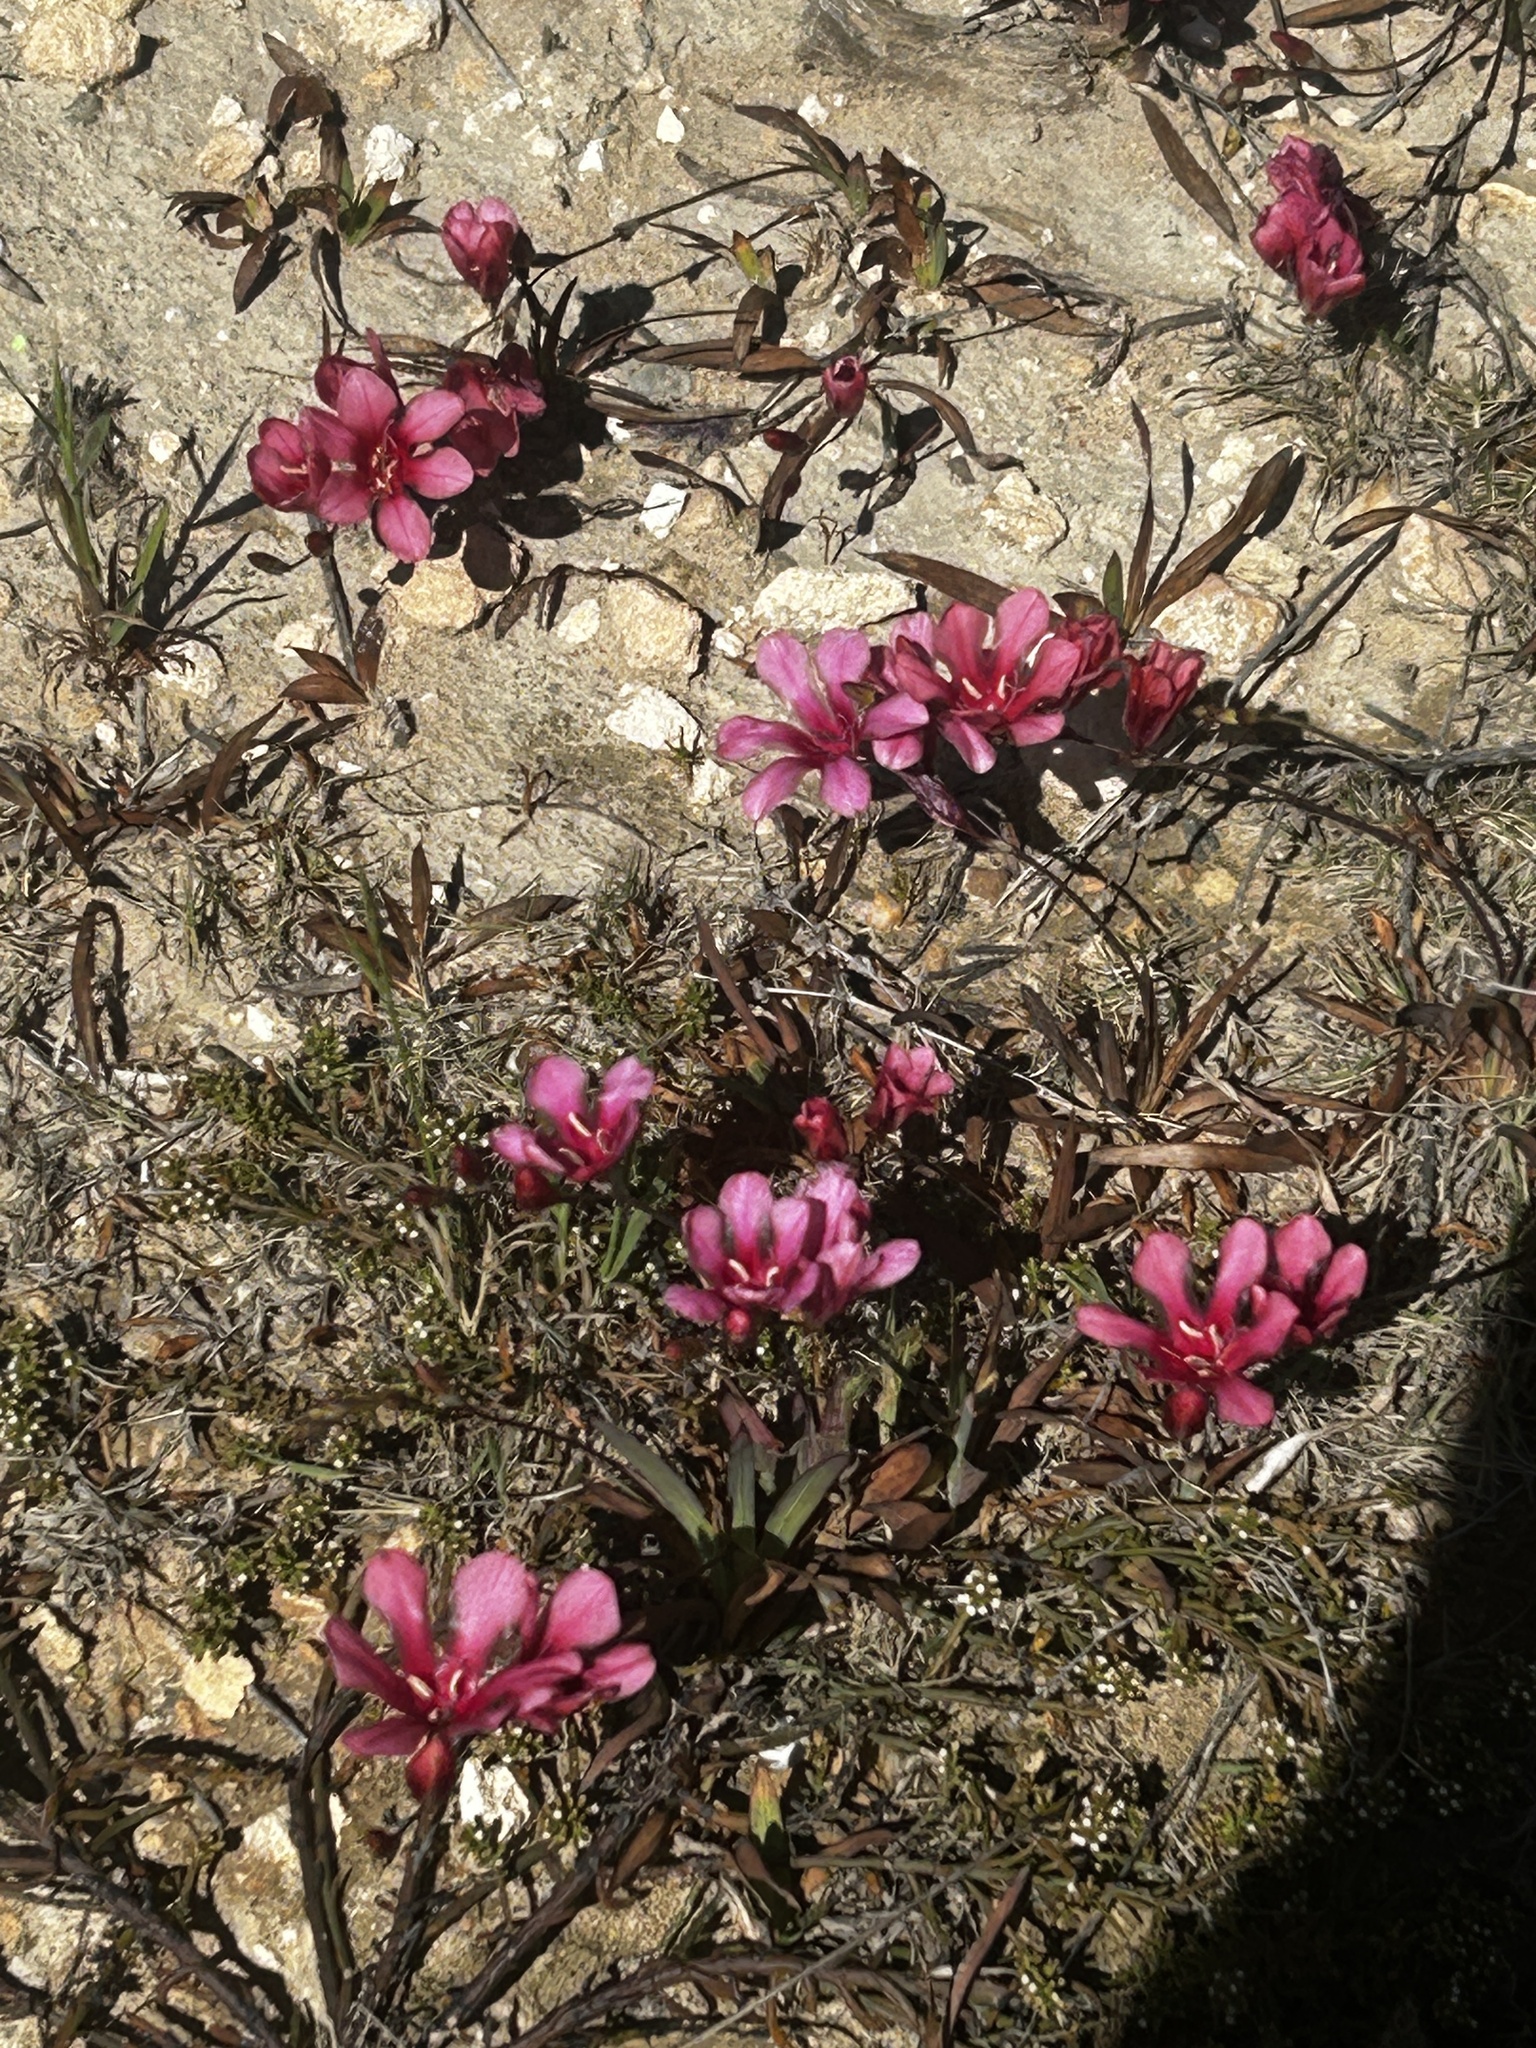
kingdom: Plantae
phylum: Tracheophyta
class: Liliopsida
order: Asparagales
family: Iridaceae
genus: Tritonia
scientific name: Tritonia squalida
